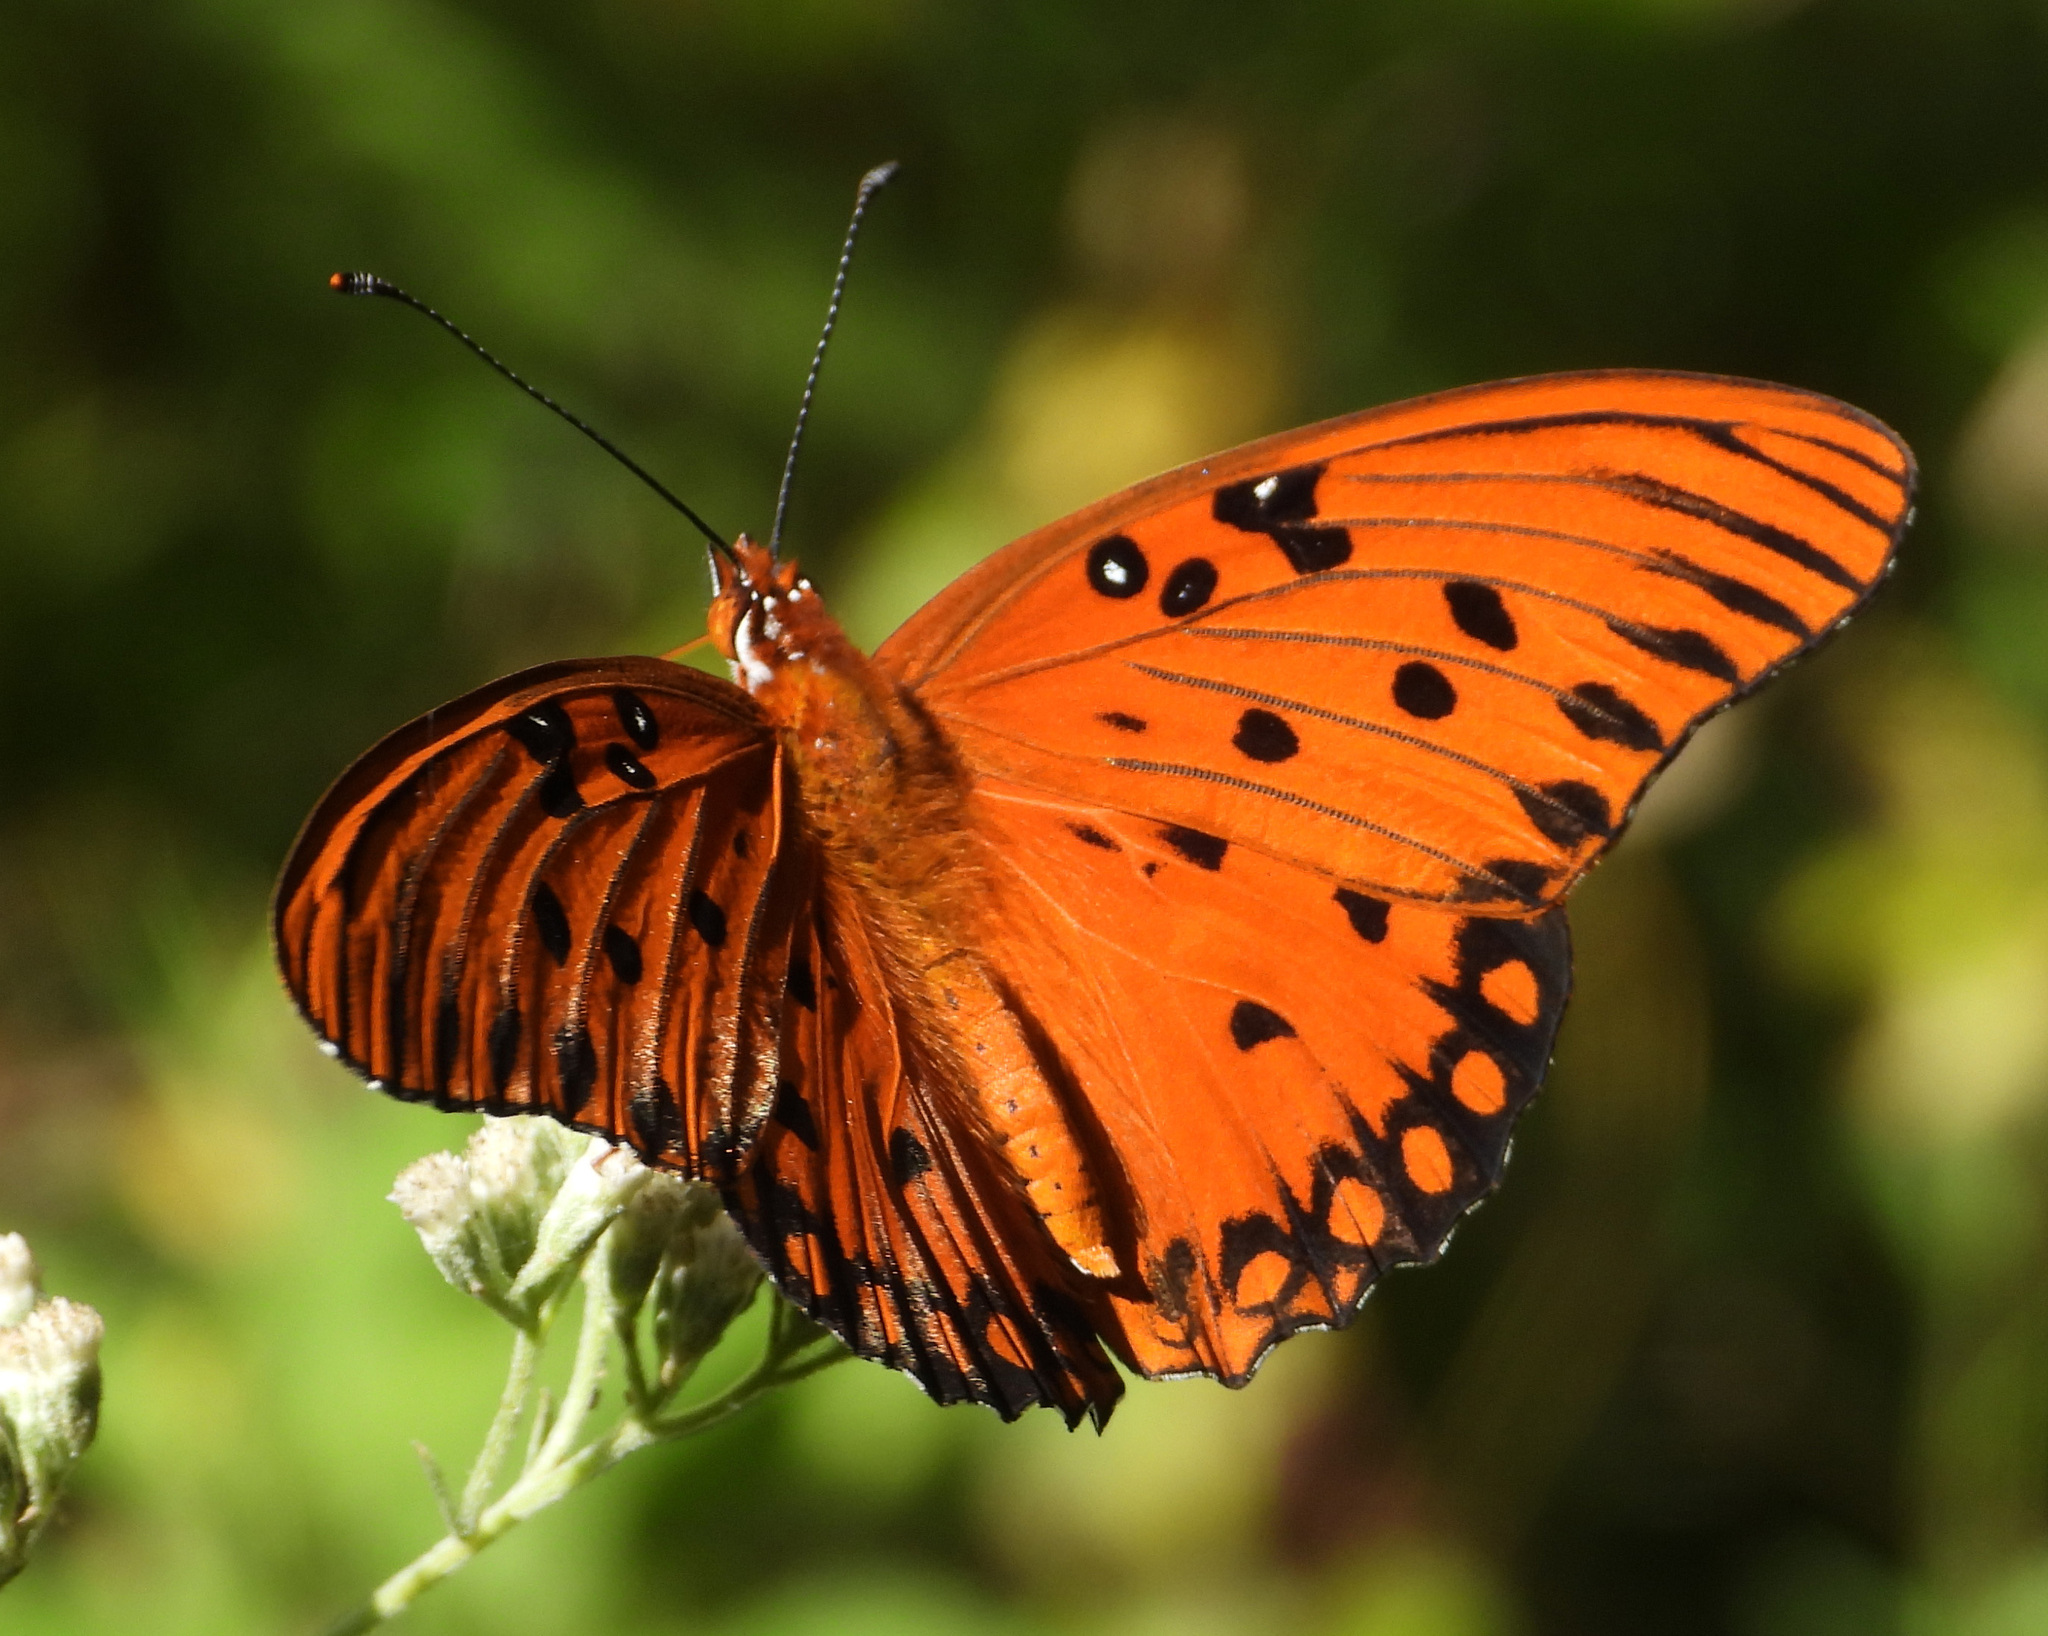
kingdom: Animalia
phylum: Arthropoda
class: Insecta
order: Lepidoptera
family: Nymphalidae
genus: Dione
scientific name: Dione vanillae
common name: Gulf fritillary
